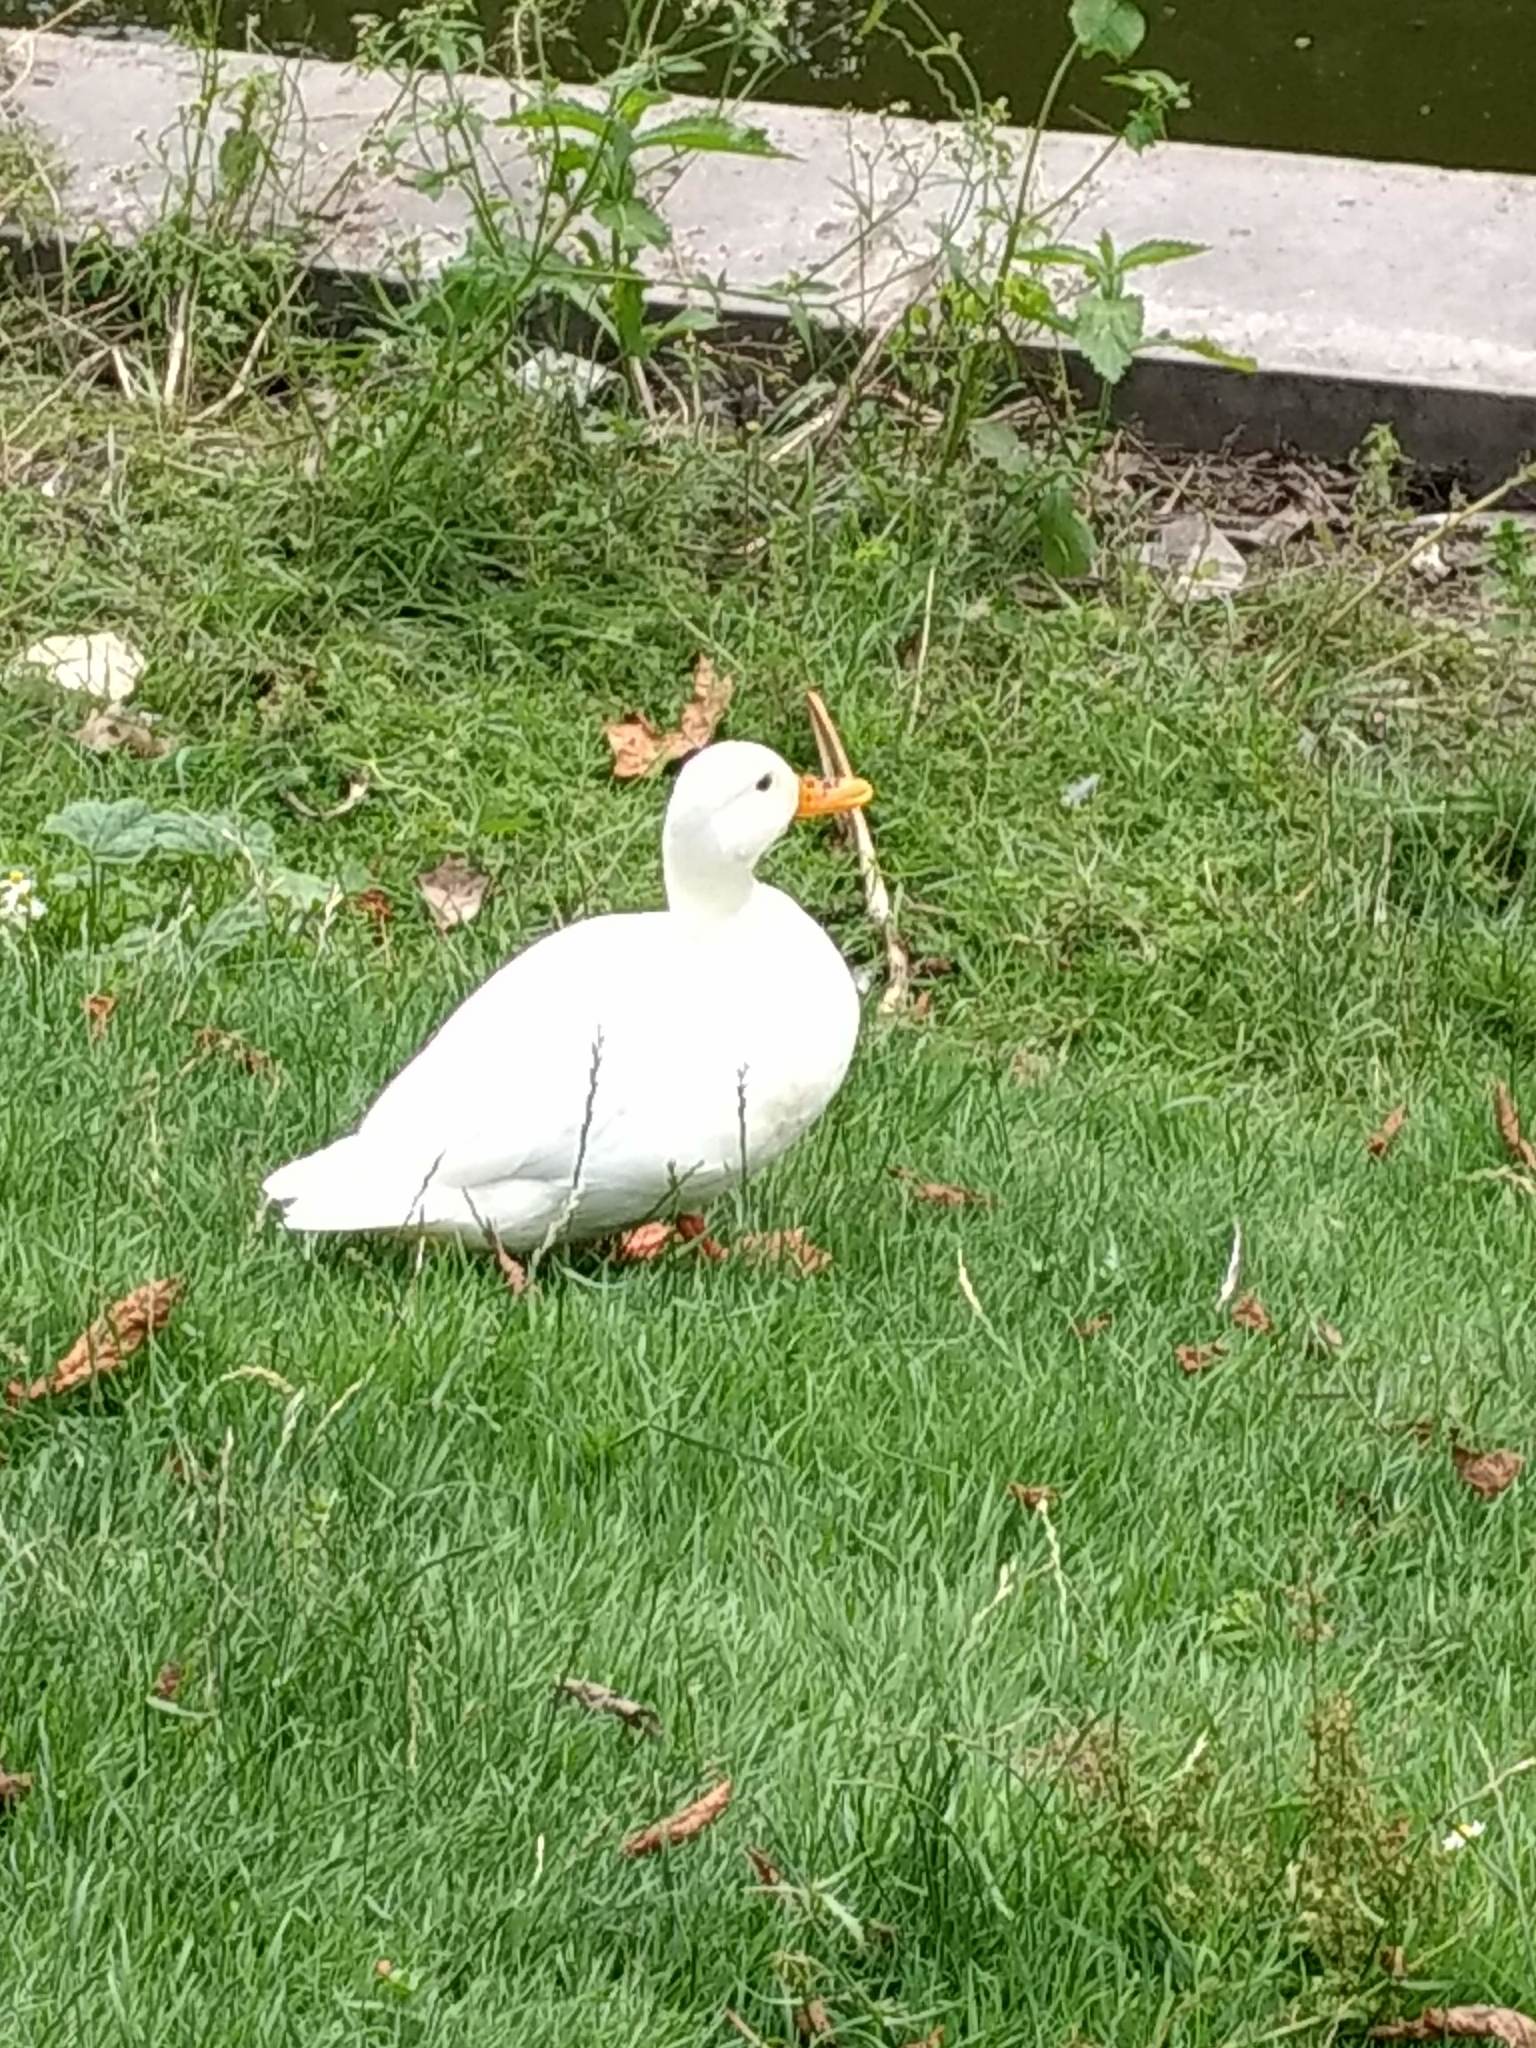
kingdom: Animalia
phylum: Chordata
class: Aves
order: Anseriformes
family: Anatidae
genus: Anas
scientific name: Anas platyrhynchos
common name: Mallard
